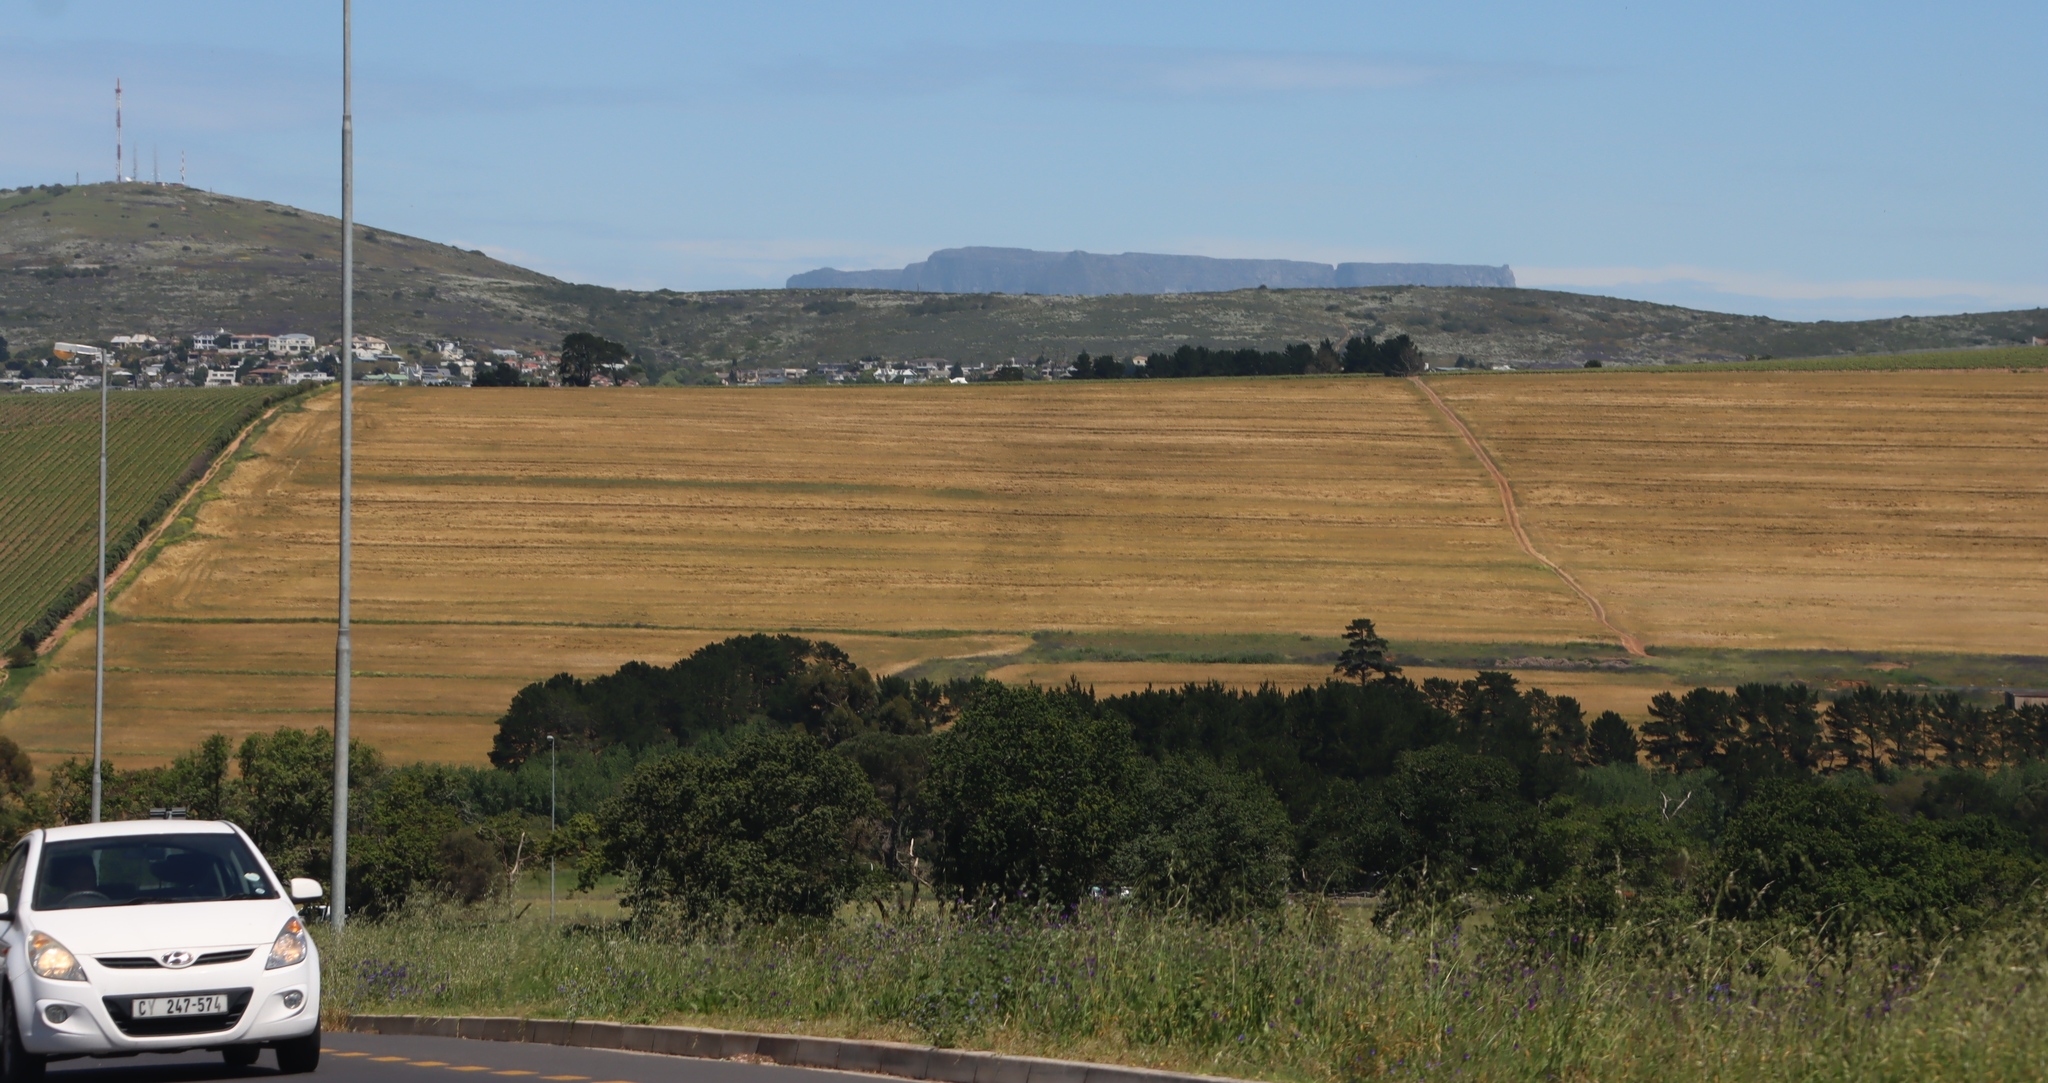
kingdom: Plantae
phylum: Tracheophyta
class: Magnoliopsida
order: Boraginales
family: Boraginaceae
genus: Echium
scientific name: Echium plantagineum
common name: Purple viper's-bugloss
